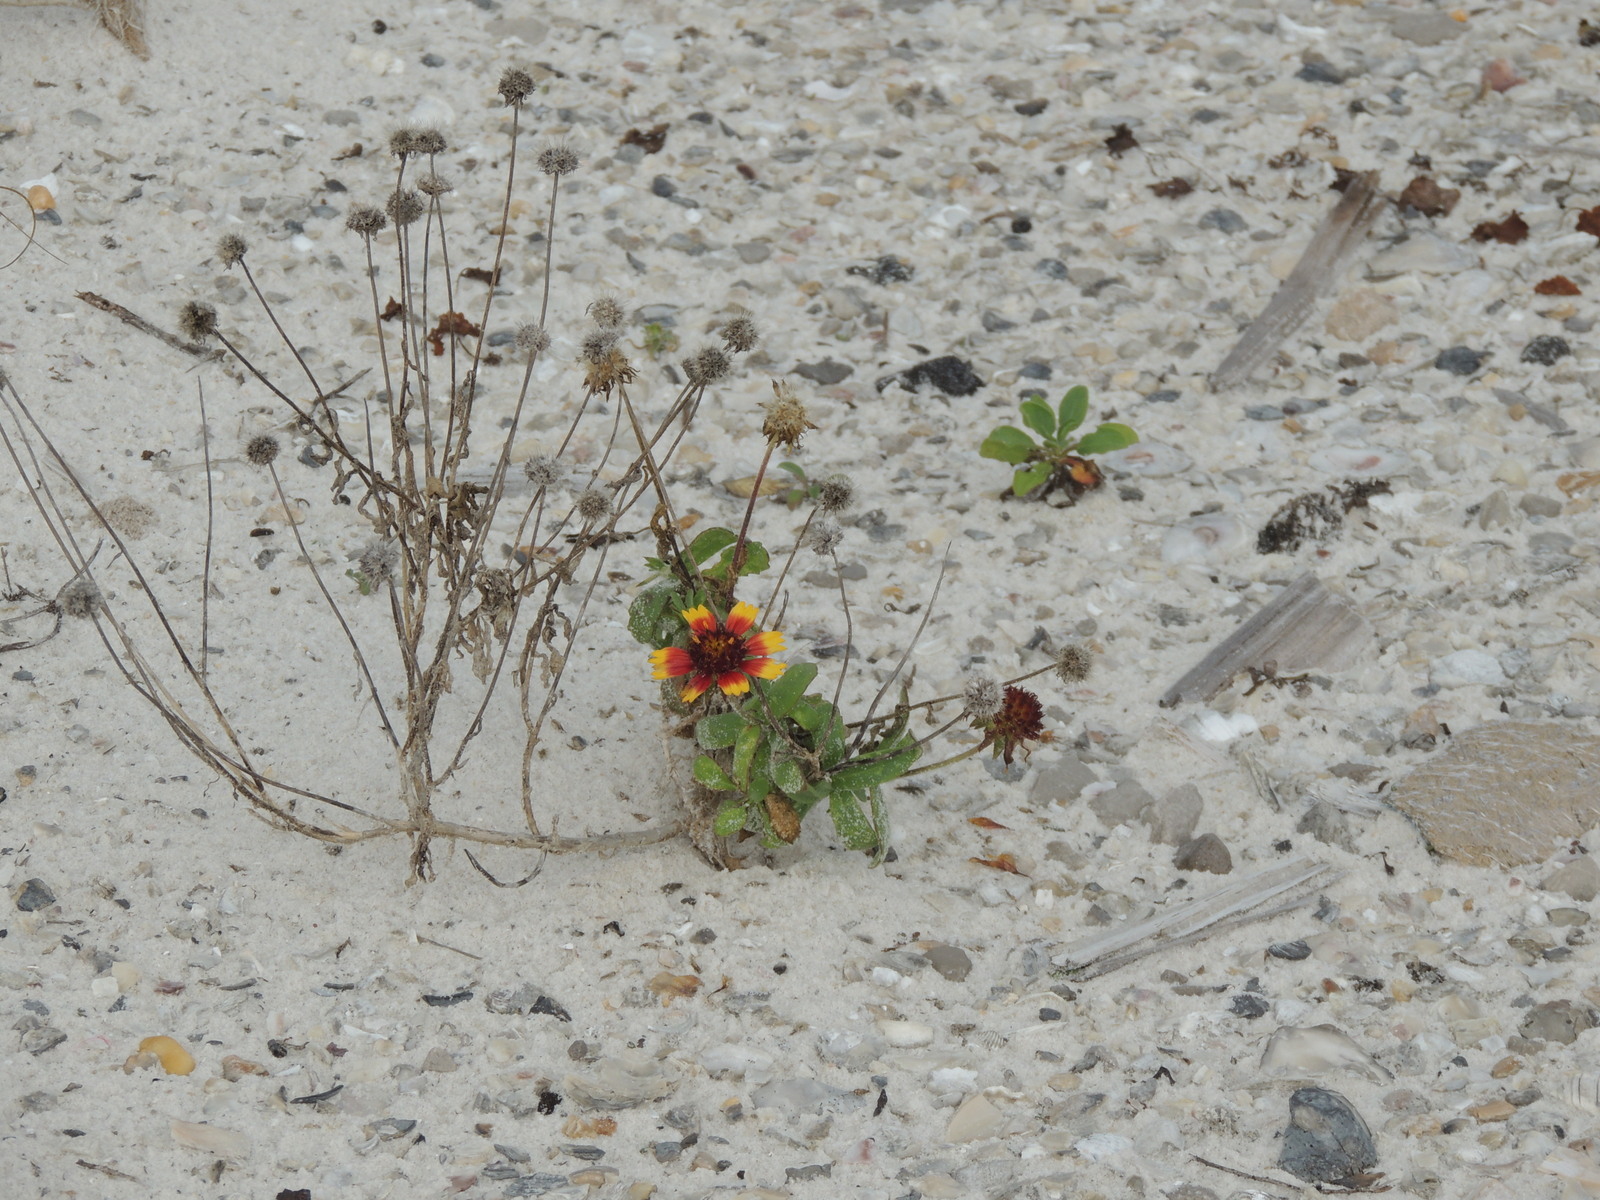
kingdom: Plantae
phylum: Tracheophyta
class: Magnoliopsida
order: Asterales
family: Asteraceae
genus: Gaillardia
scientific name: Gaillardia pulchella
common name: Firewheel
